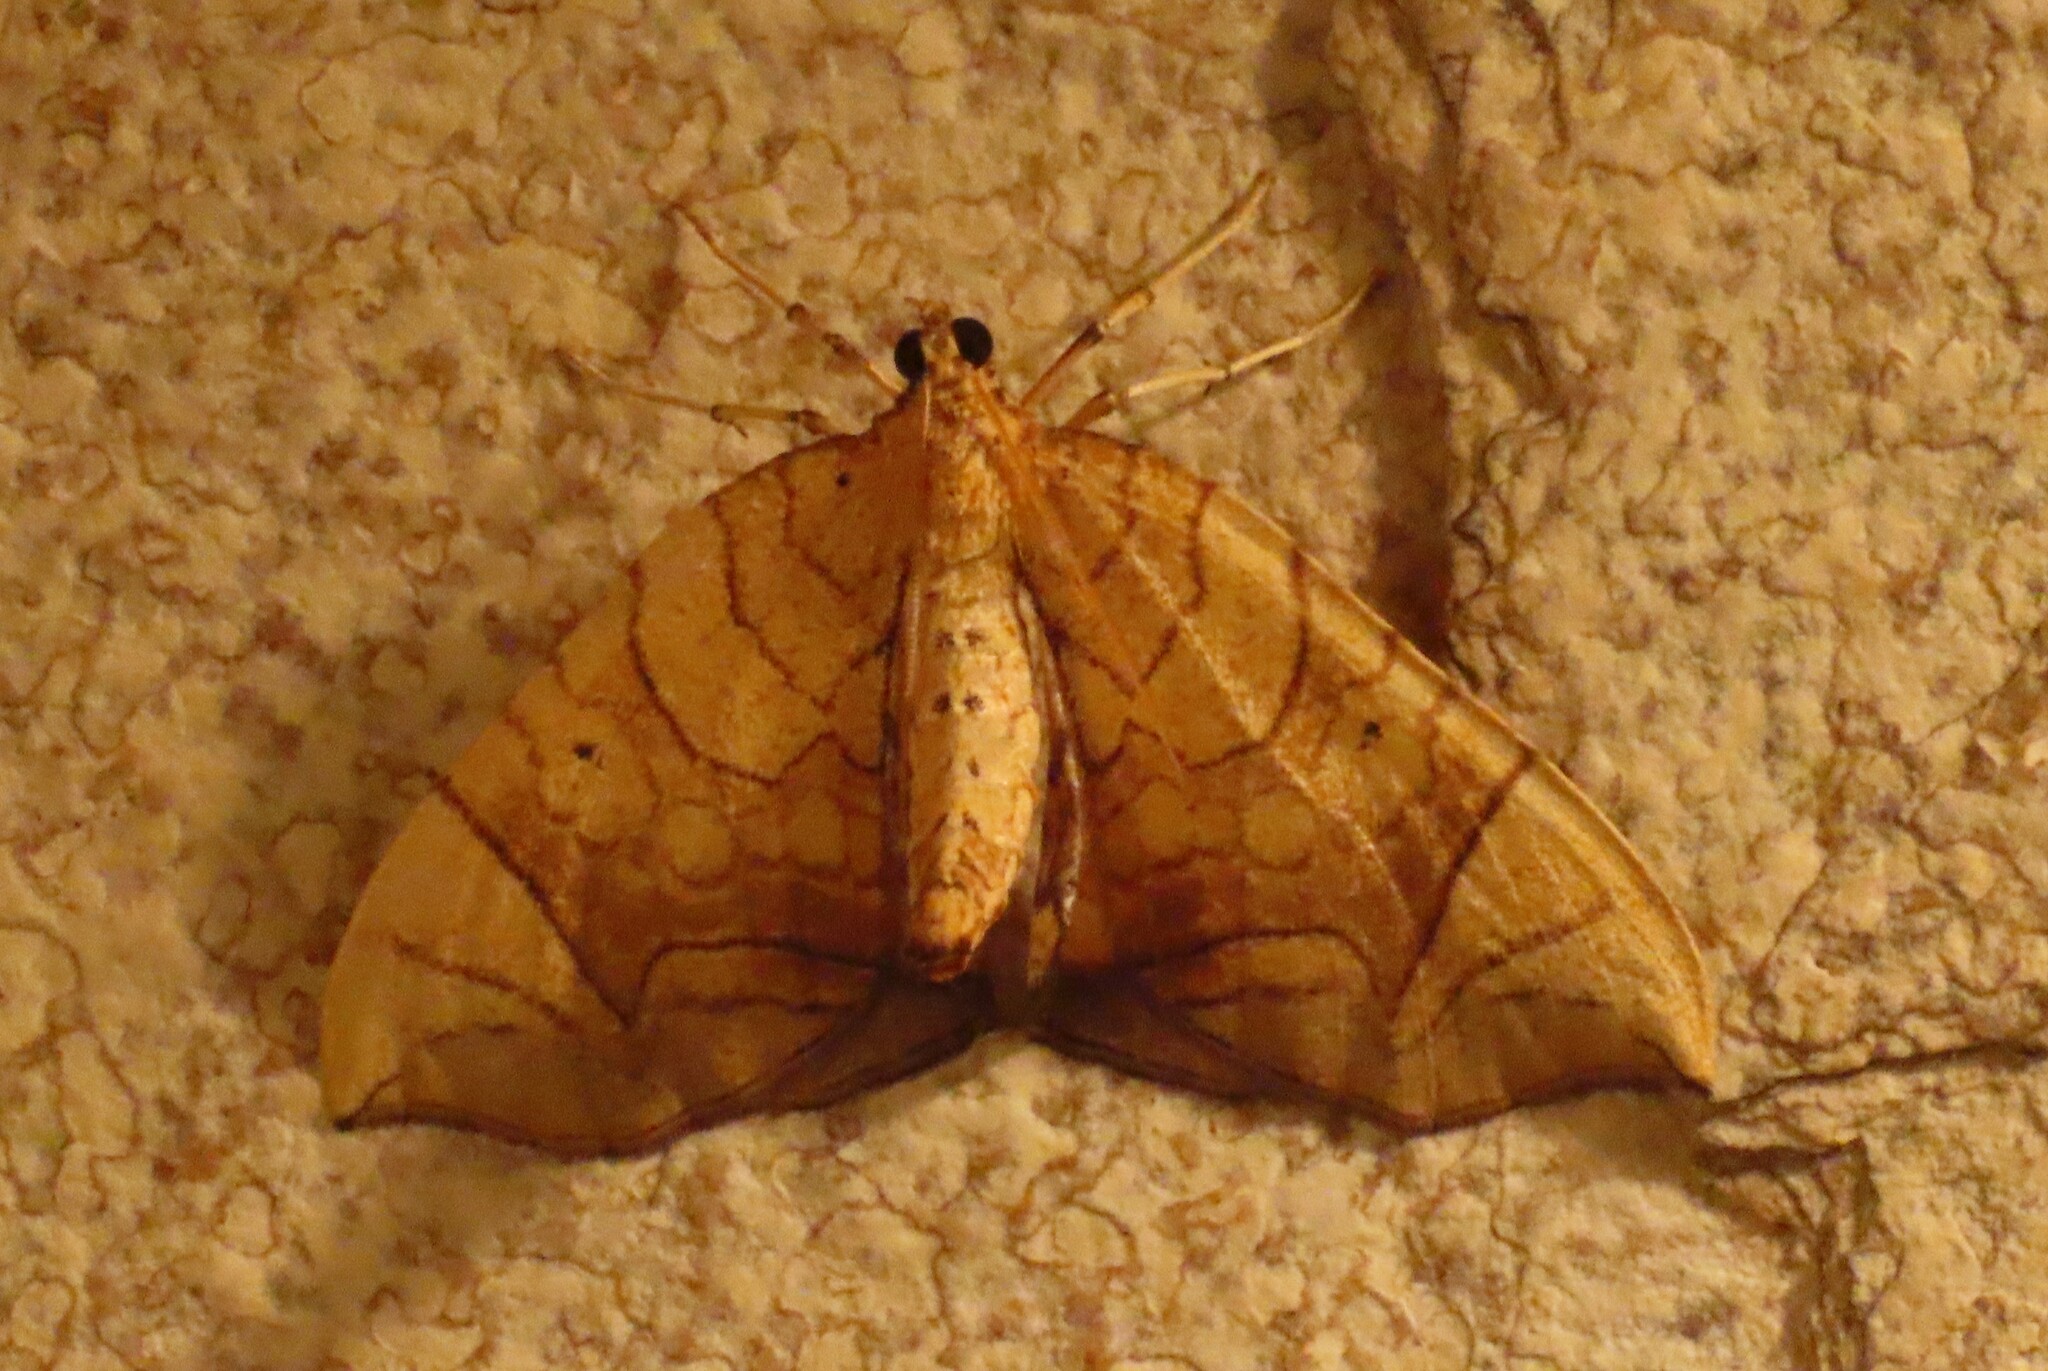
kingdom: Animalia
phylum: Arthropoda
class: Insecta
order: Lepidoptera
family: Geometridae
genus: Eulithis
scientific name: Eulithis gracilineata
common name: Greater grapevine looper moth
